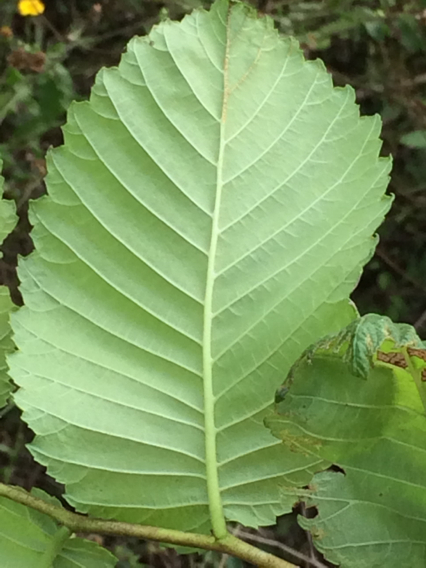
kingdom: Plantae
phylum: Tracheophyta
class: Magnoliopsida
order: Rosales
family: Ulmaceae
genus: Ulmus
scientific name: Ulmus americana
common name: American elm
